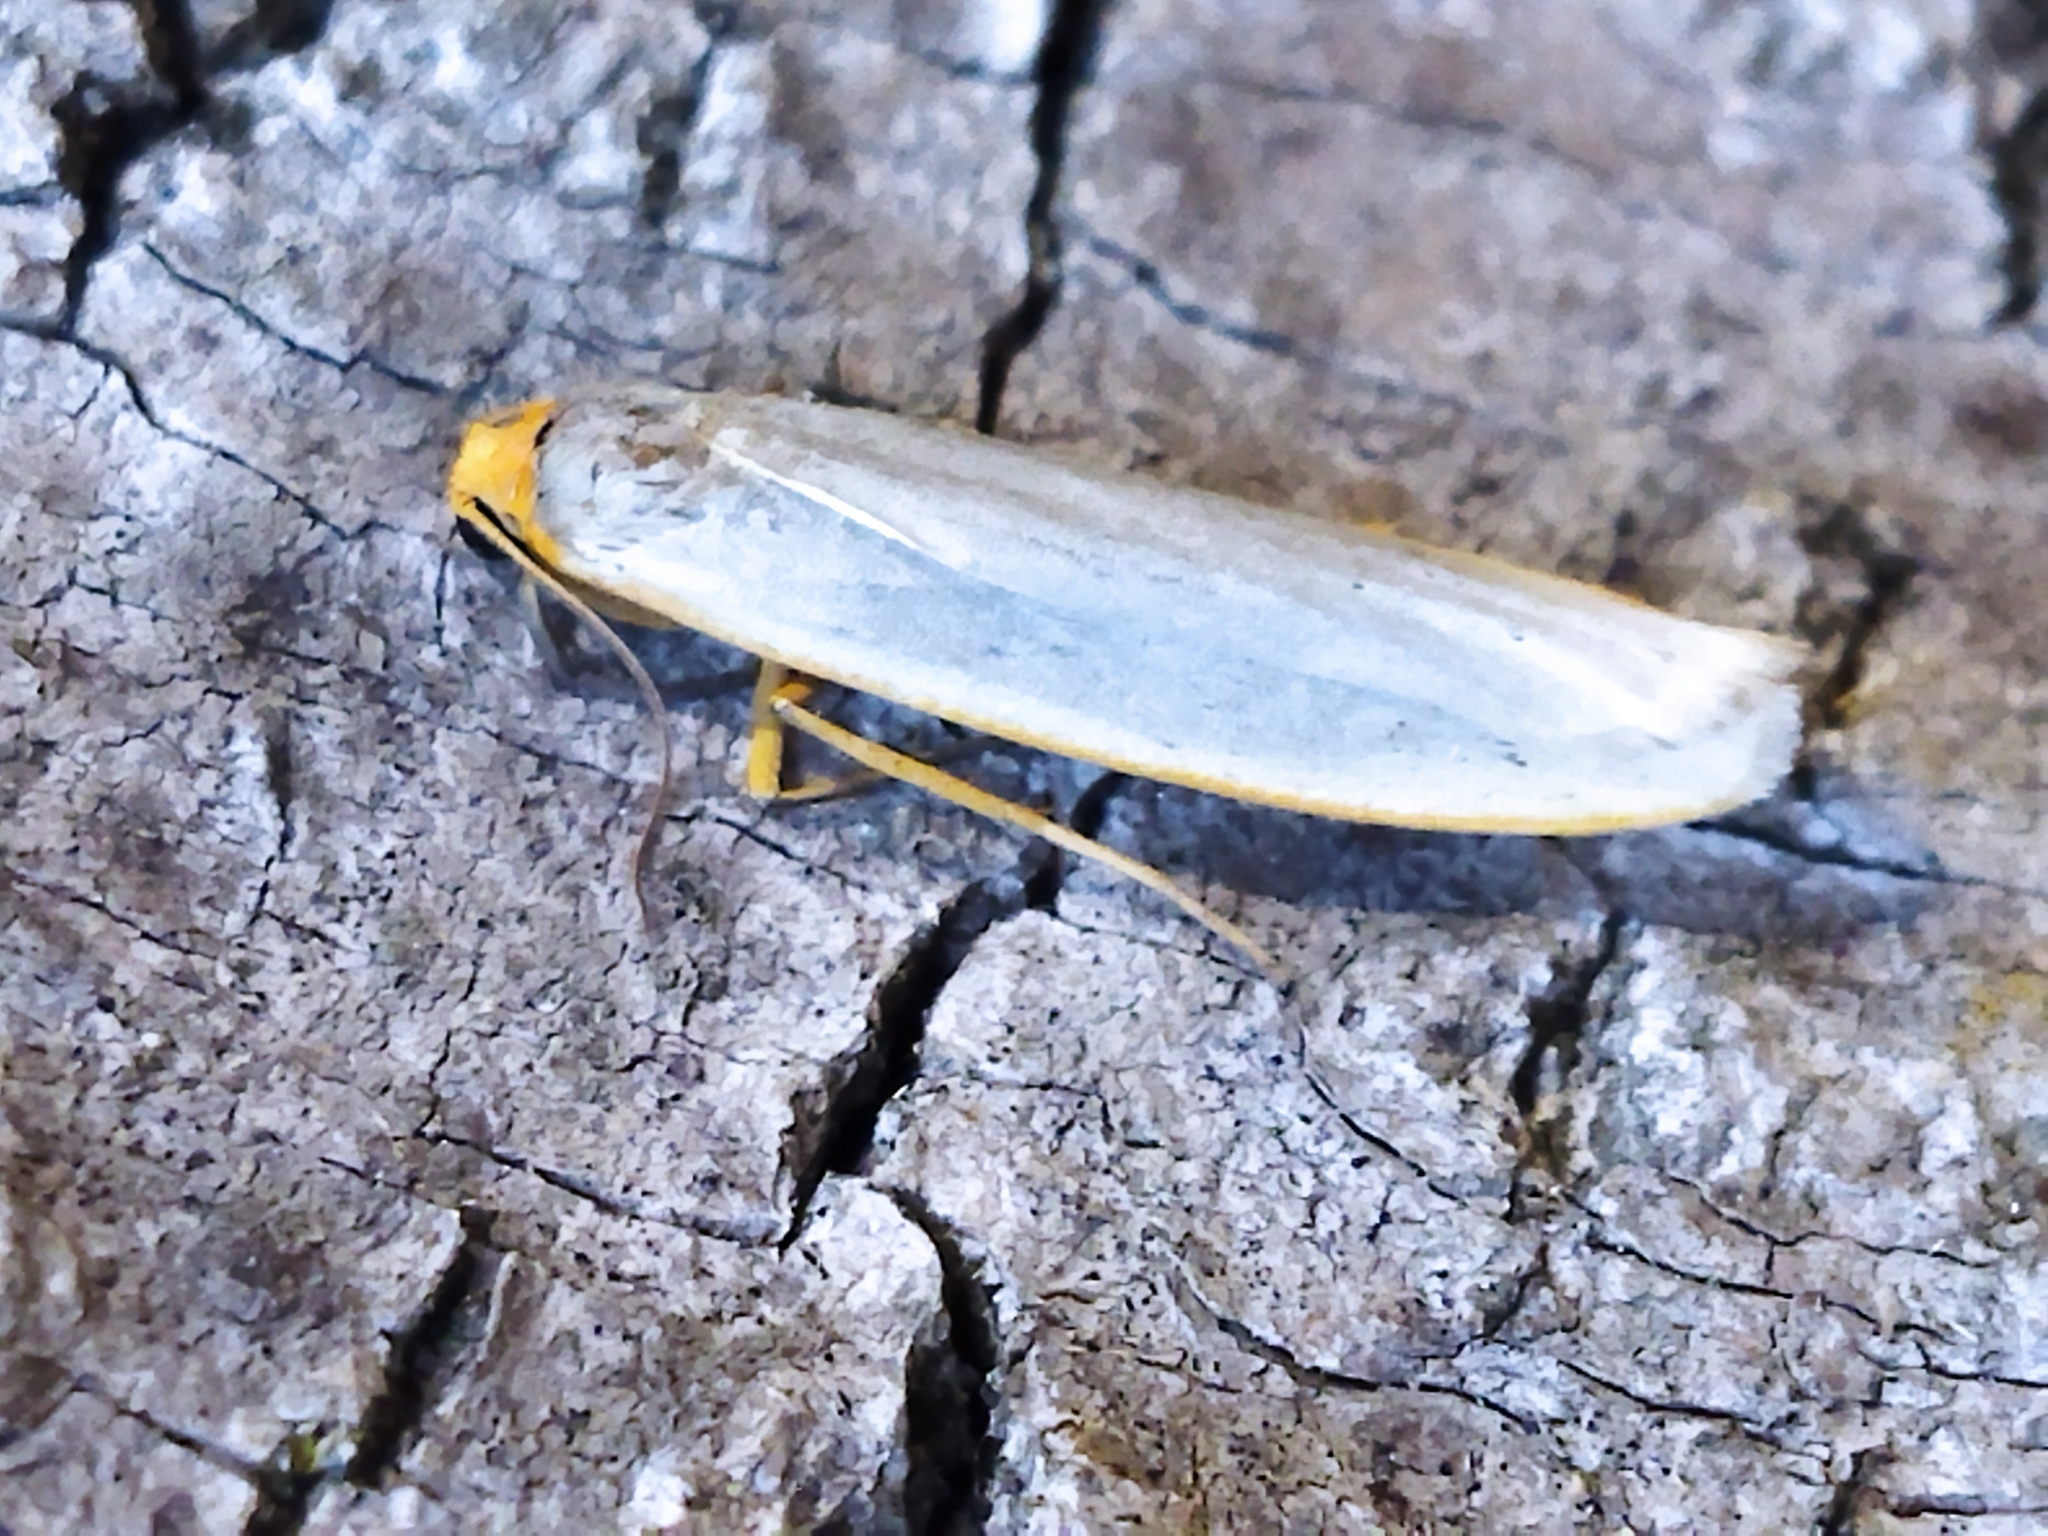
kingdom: Animalia
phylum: Arthropoda
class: Insecta
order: Lepidoptera
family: Erebidae
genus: Eilema
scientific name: Eilema caniola
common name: Hoary footman
